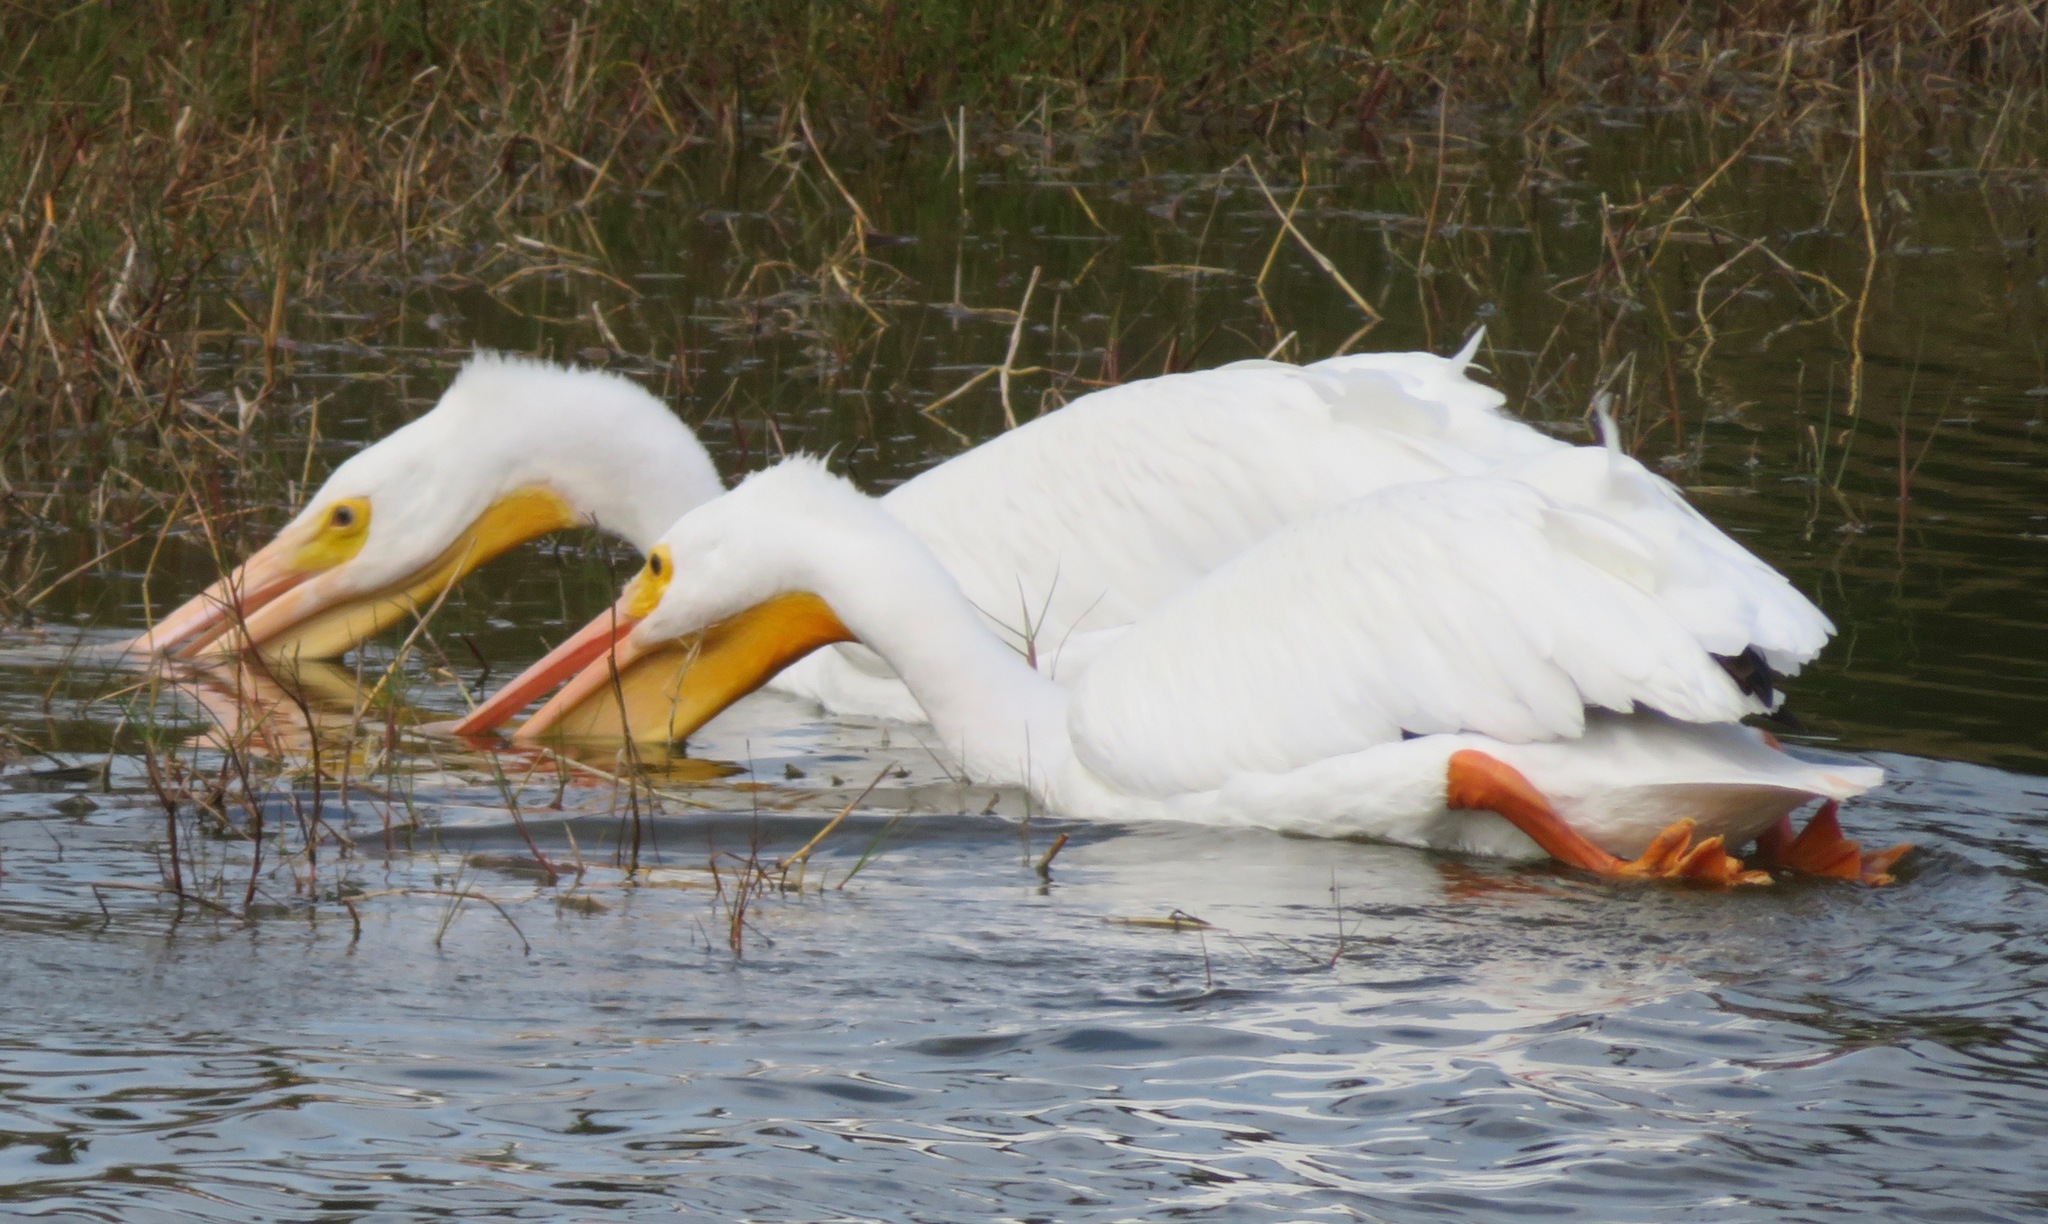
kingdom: Animalia
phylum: Chordata
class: Aves
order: Pelecaniformes
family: Pelecanidae
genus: Pelecanus
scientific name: Pelecanus erythrorhynchos
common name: American white pelican
